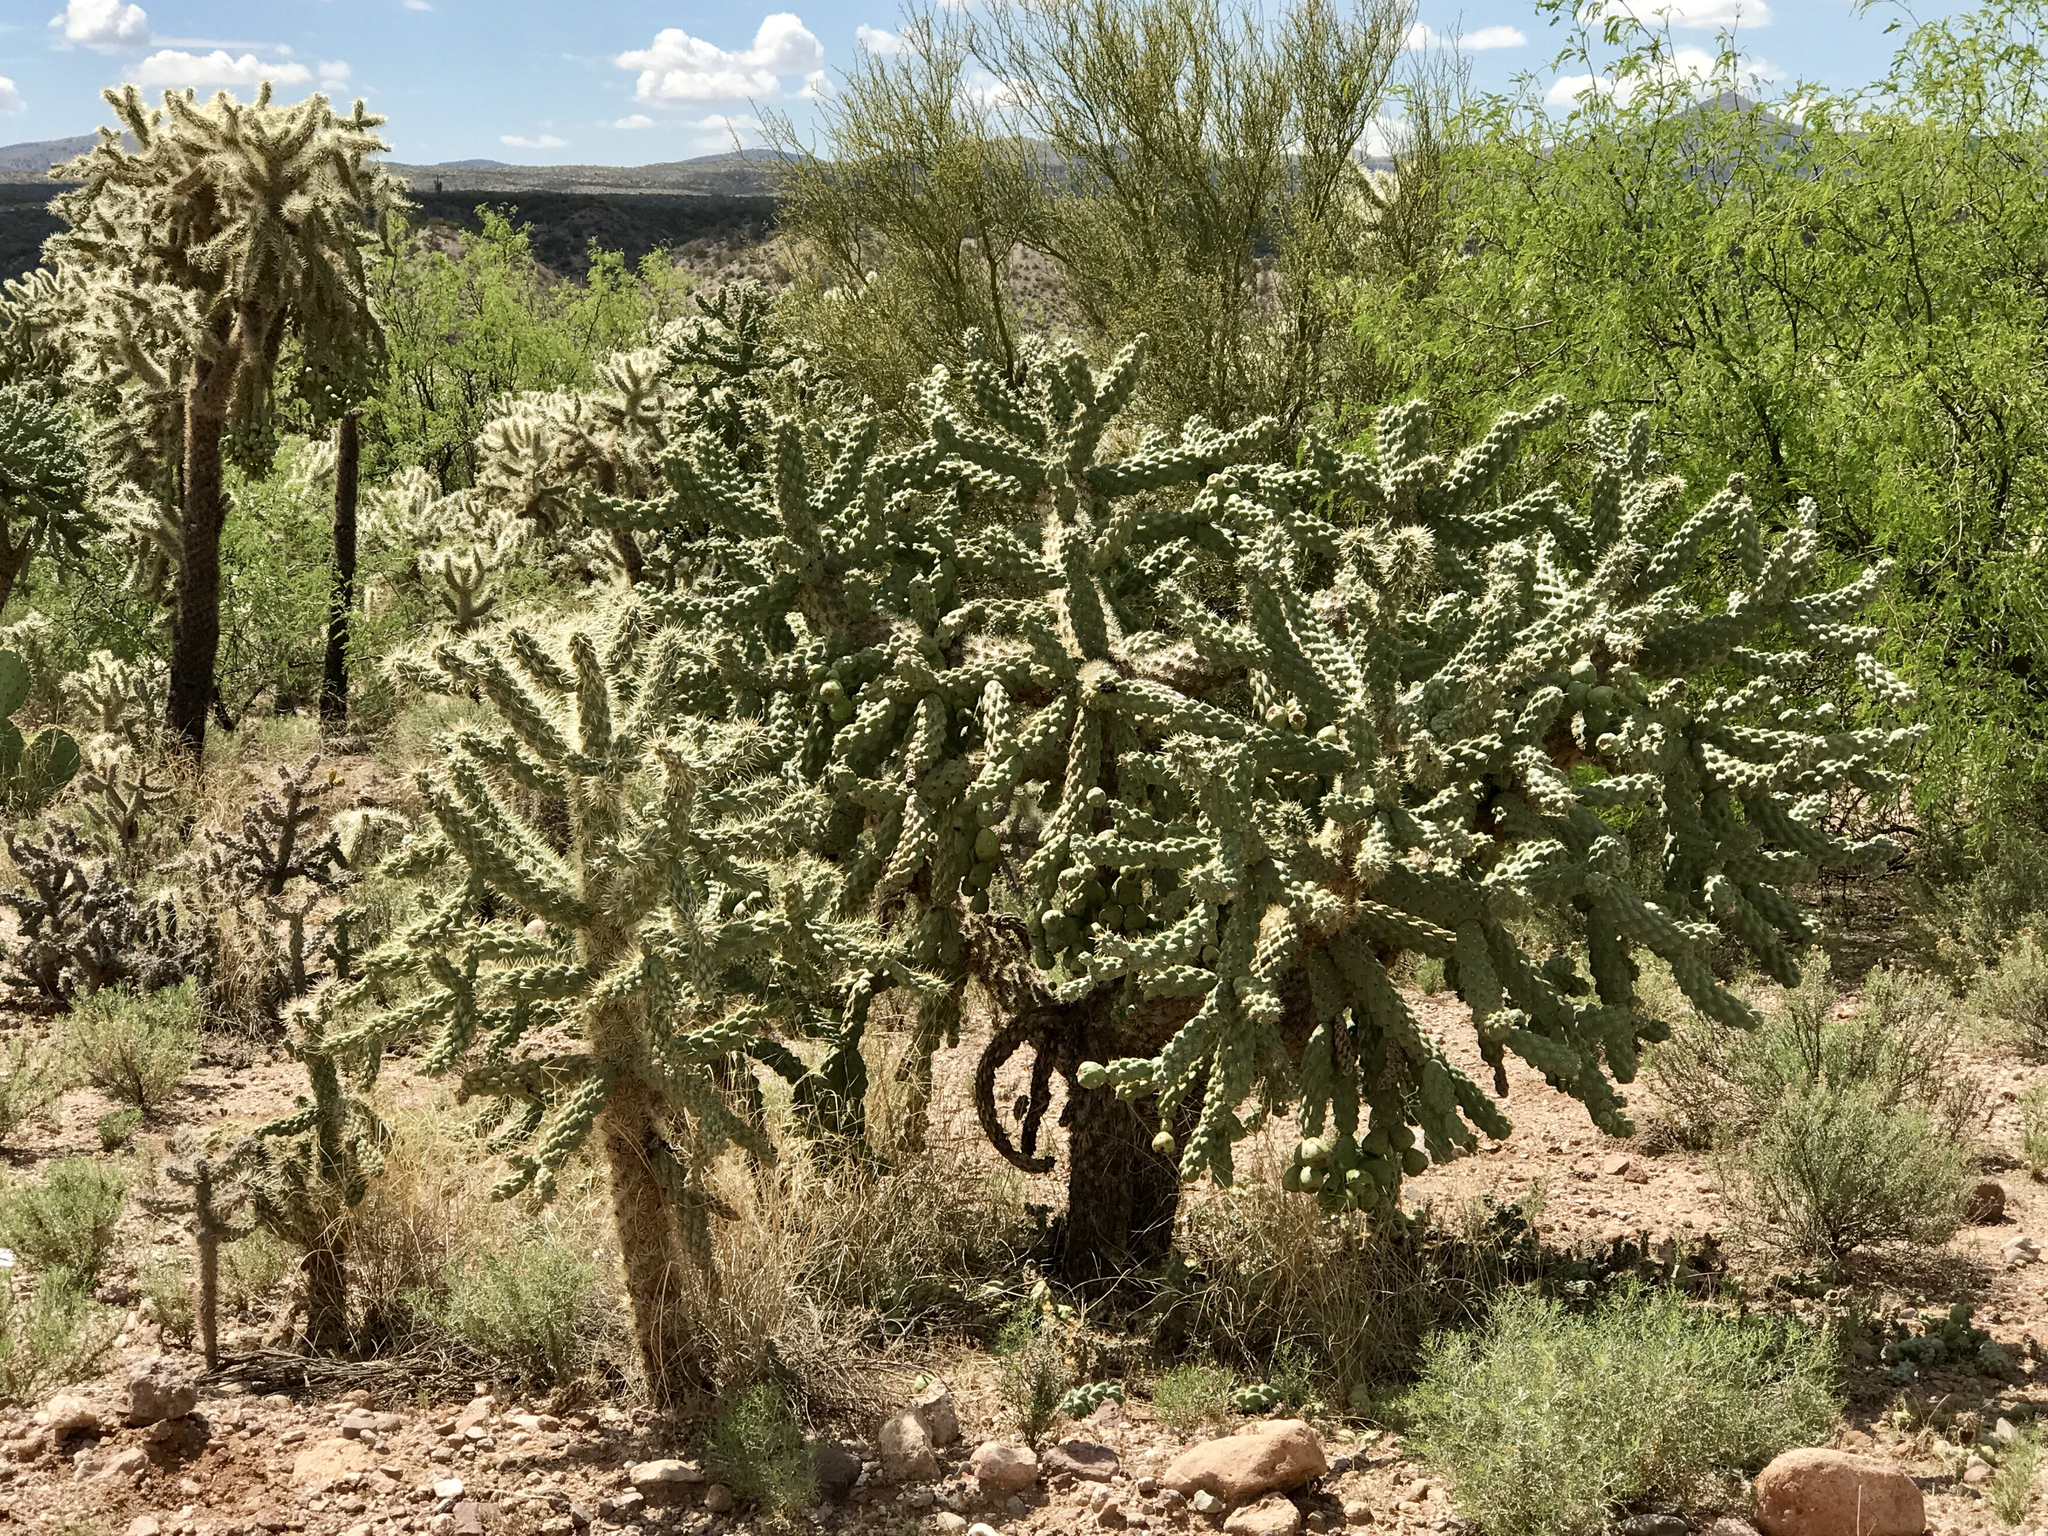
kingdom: Plantae
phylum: Tracheophyta
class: Magnoliopsida
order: Caryophyllales
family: Cactaceae
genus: Cylindropuntia
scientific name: Cylindropuntia fulgida
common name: Jumping cholla
